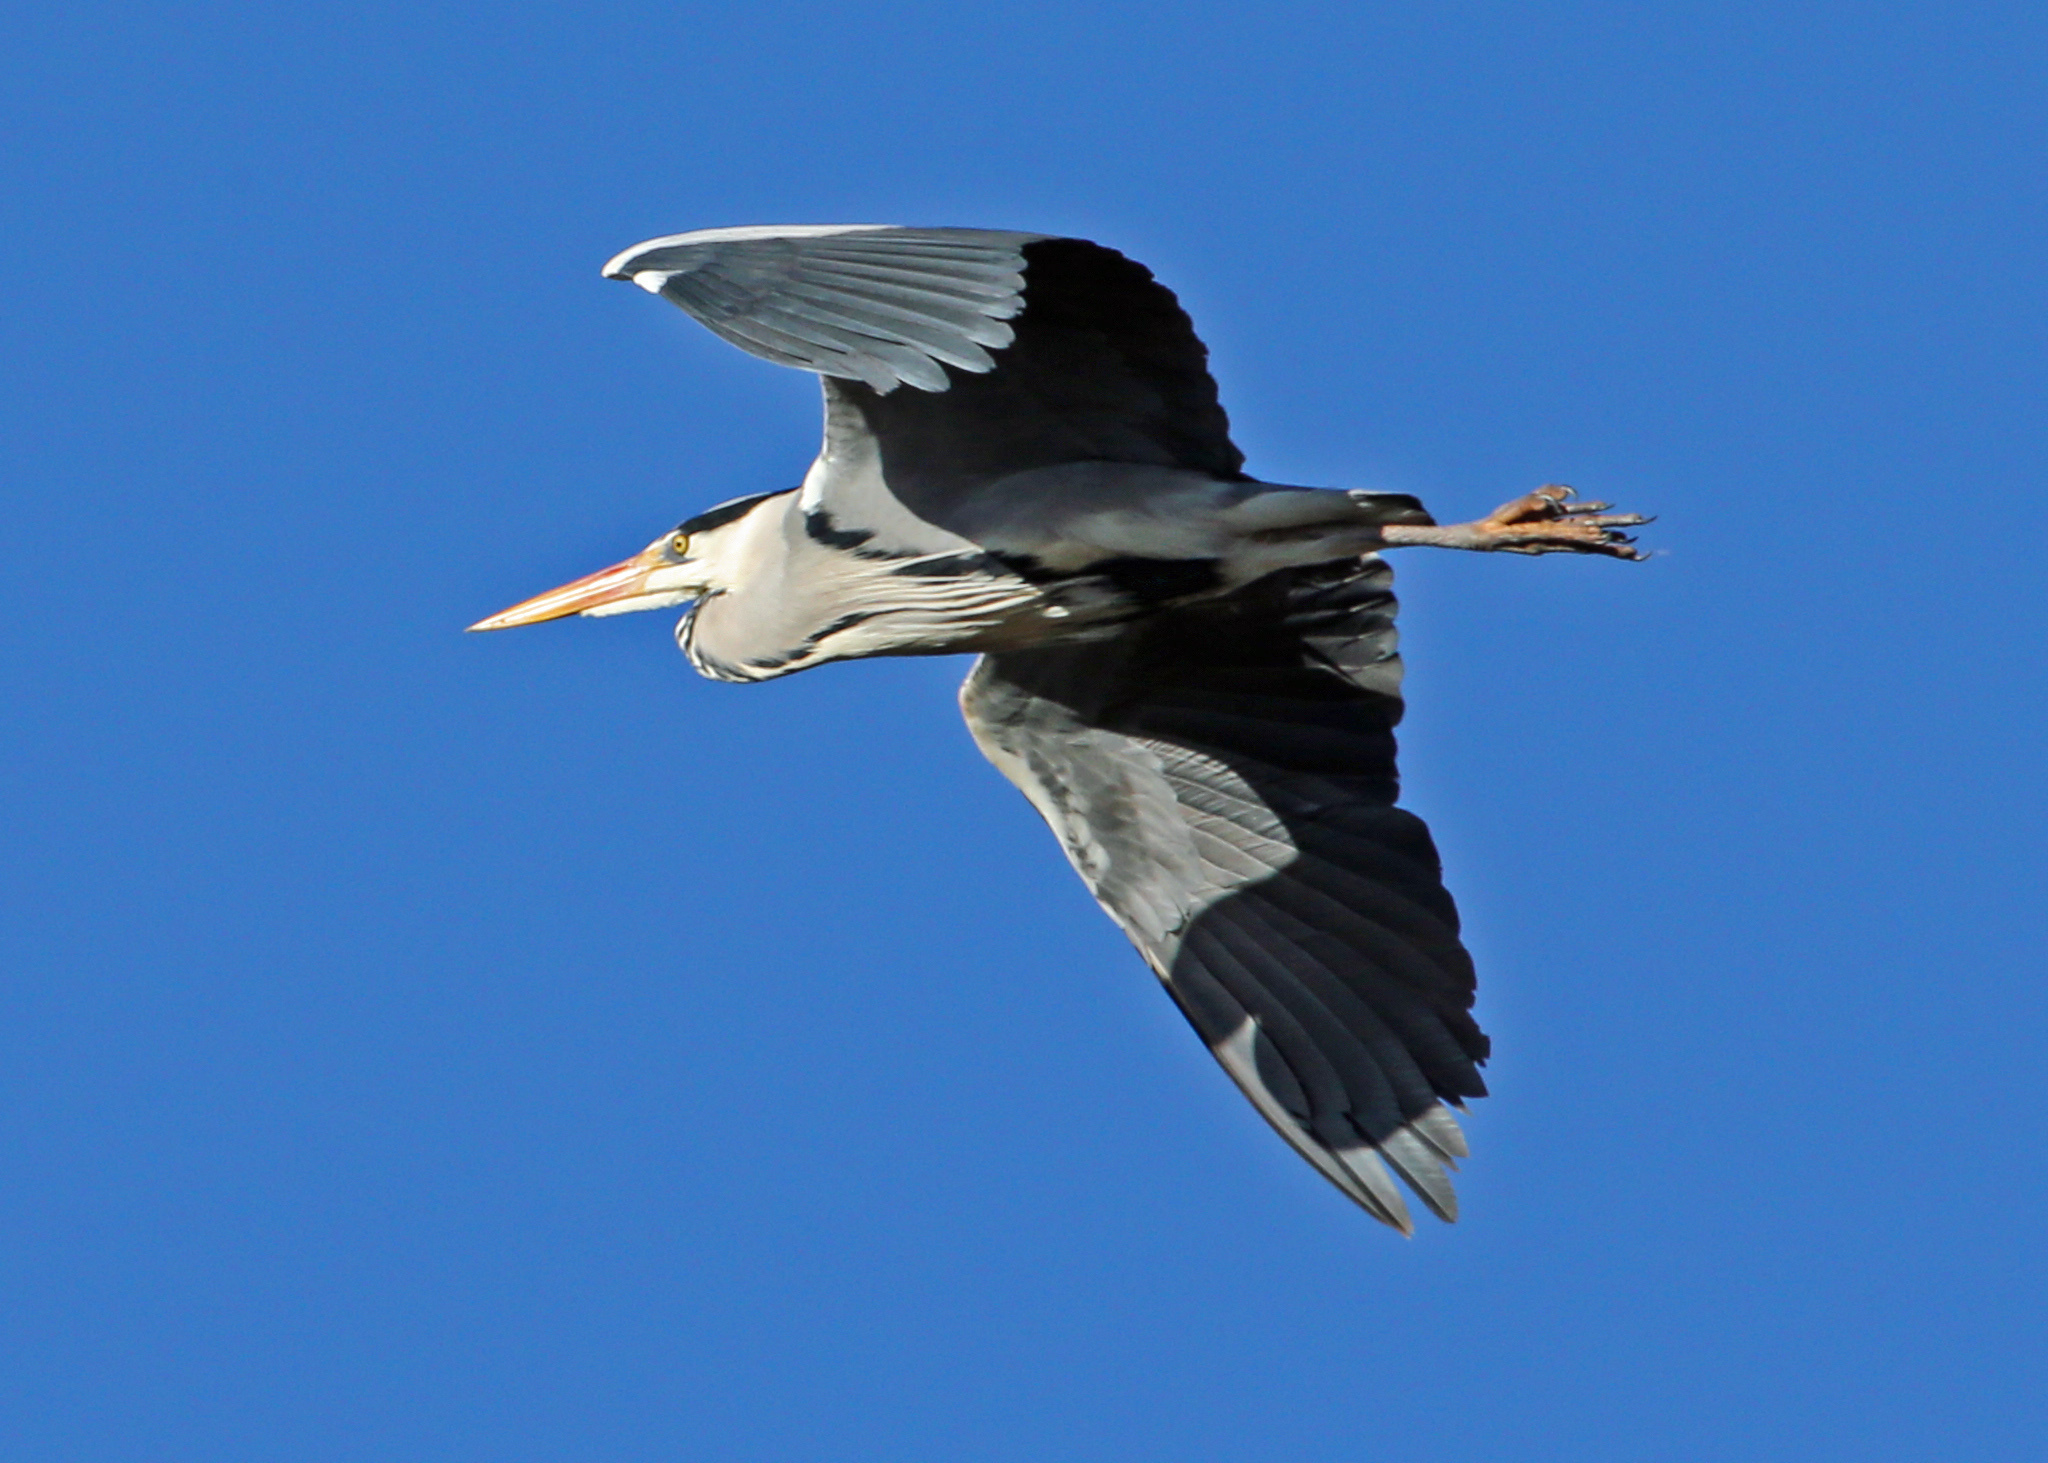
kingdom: Animalia
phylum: Chordata
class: Aves
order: Pelecaniformes
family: Ardeidae
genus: Ardea
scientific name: Ardea cinerea
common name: Grey heron
